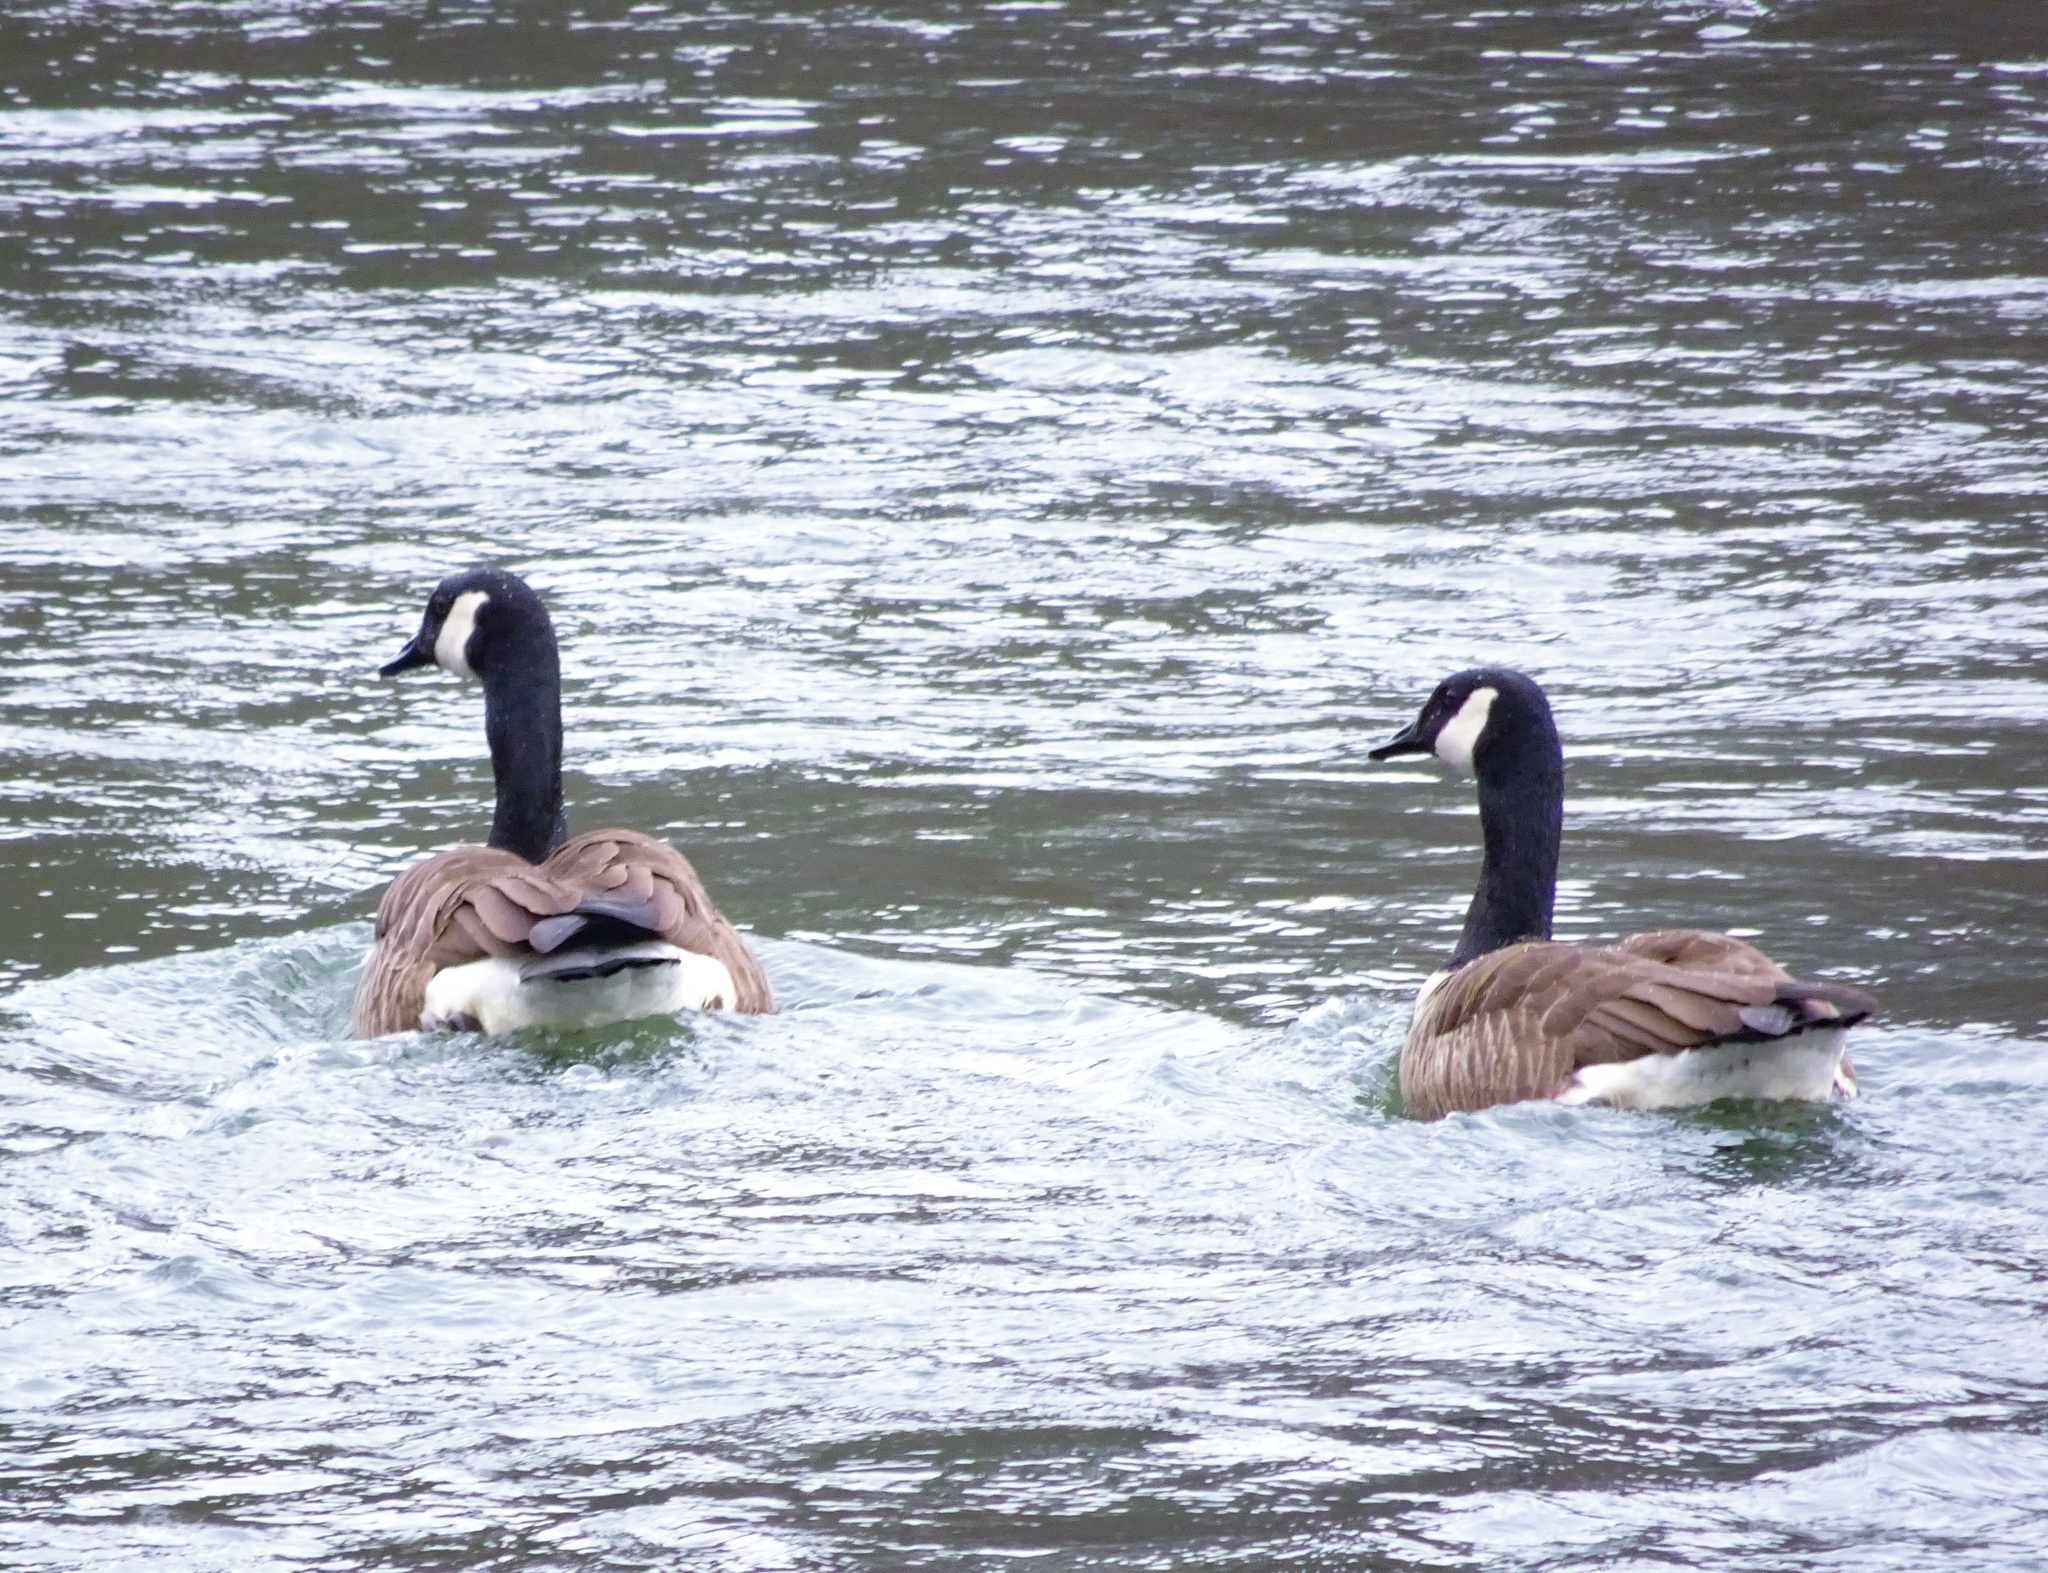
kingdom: Animalia
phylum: Chordata
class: Aves
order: Anseriformes
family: Anatidae
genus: Branta
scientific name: Branta canadensis
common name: Canada goose
